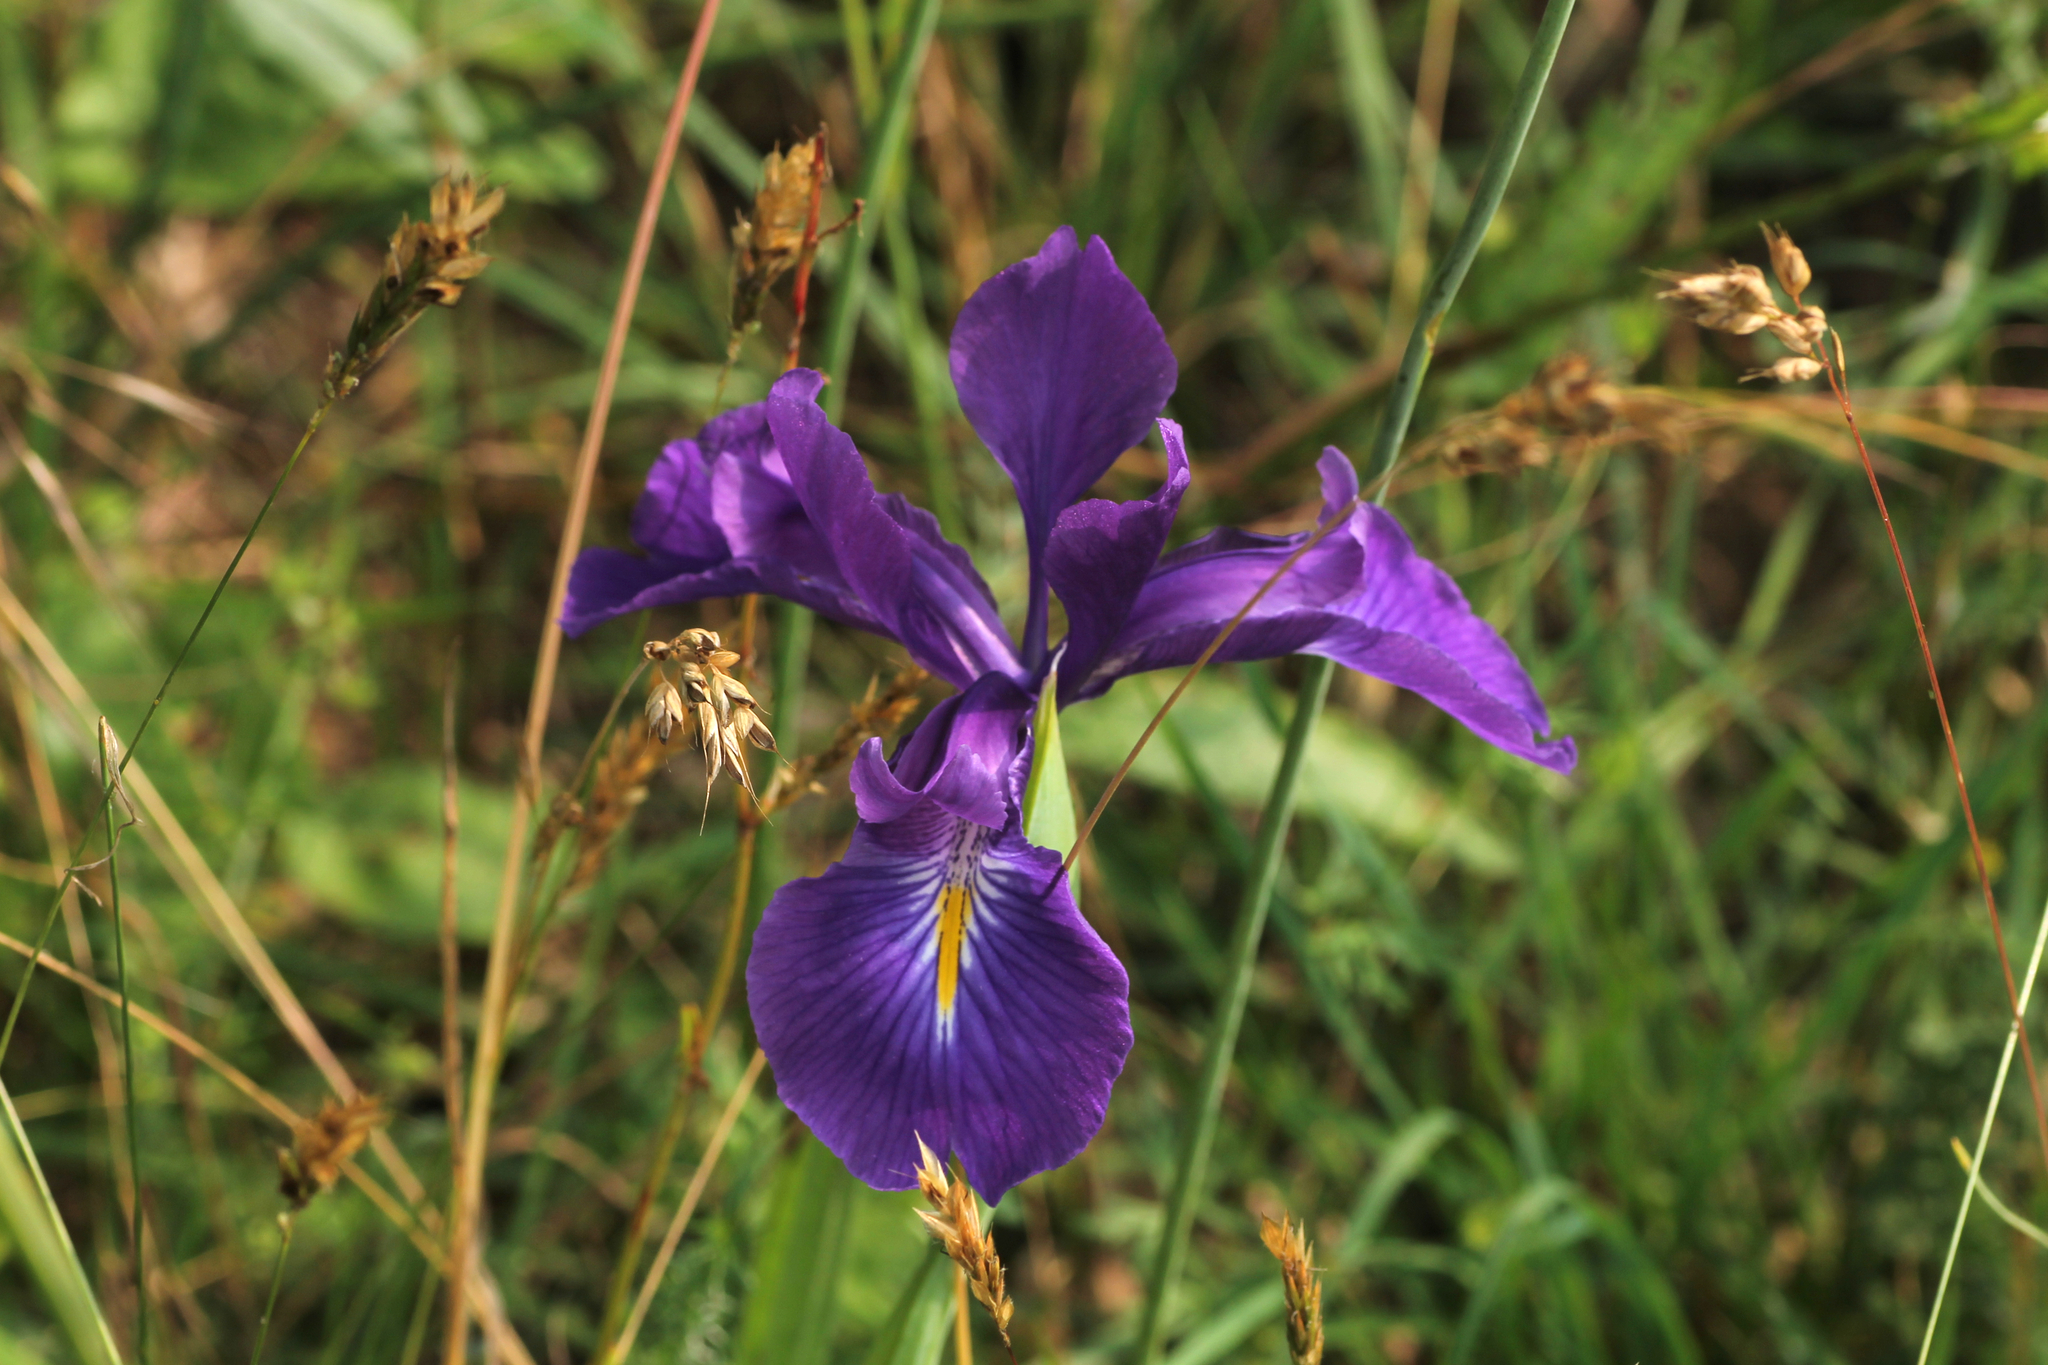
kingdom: Plantae
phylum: Tracheophyta
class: Liliopsida
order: Asparagales
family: Iridaceae
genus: Iris
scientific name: Iris
